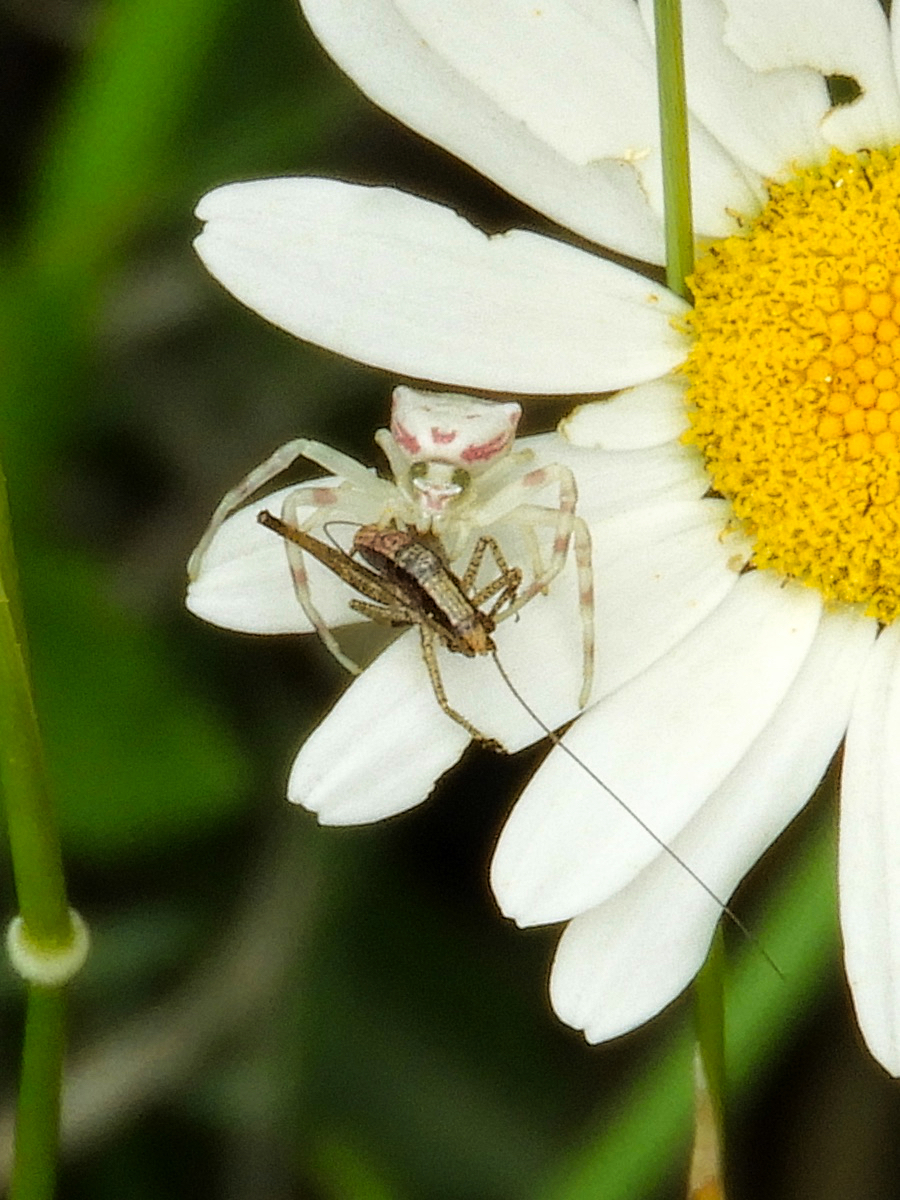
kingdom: Animalia
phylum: Arthropoda
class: Arachnida
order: Araneae
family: Thomisidae
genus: Thomisus
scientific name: Thomisus onustus
